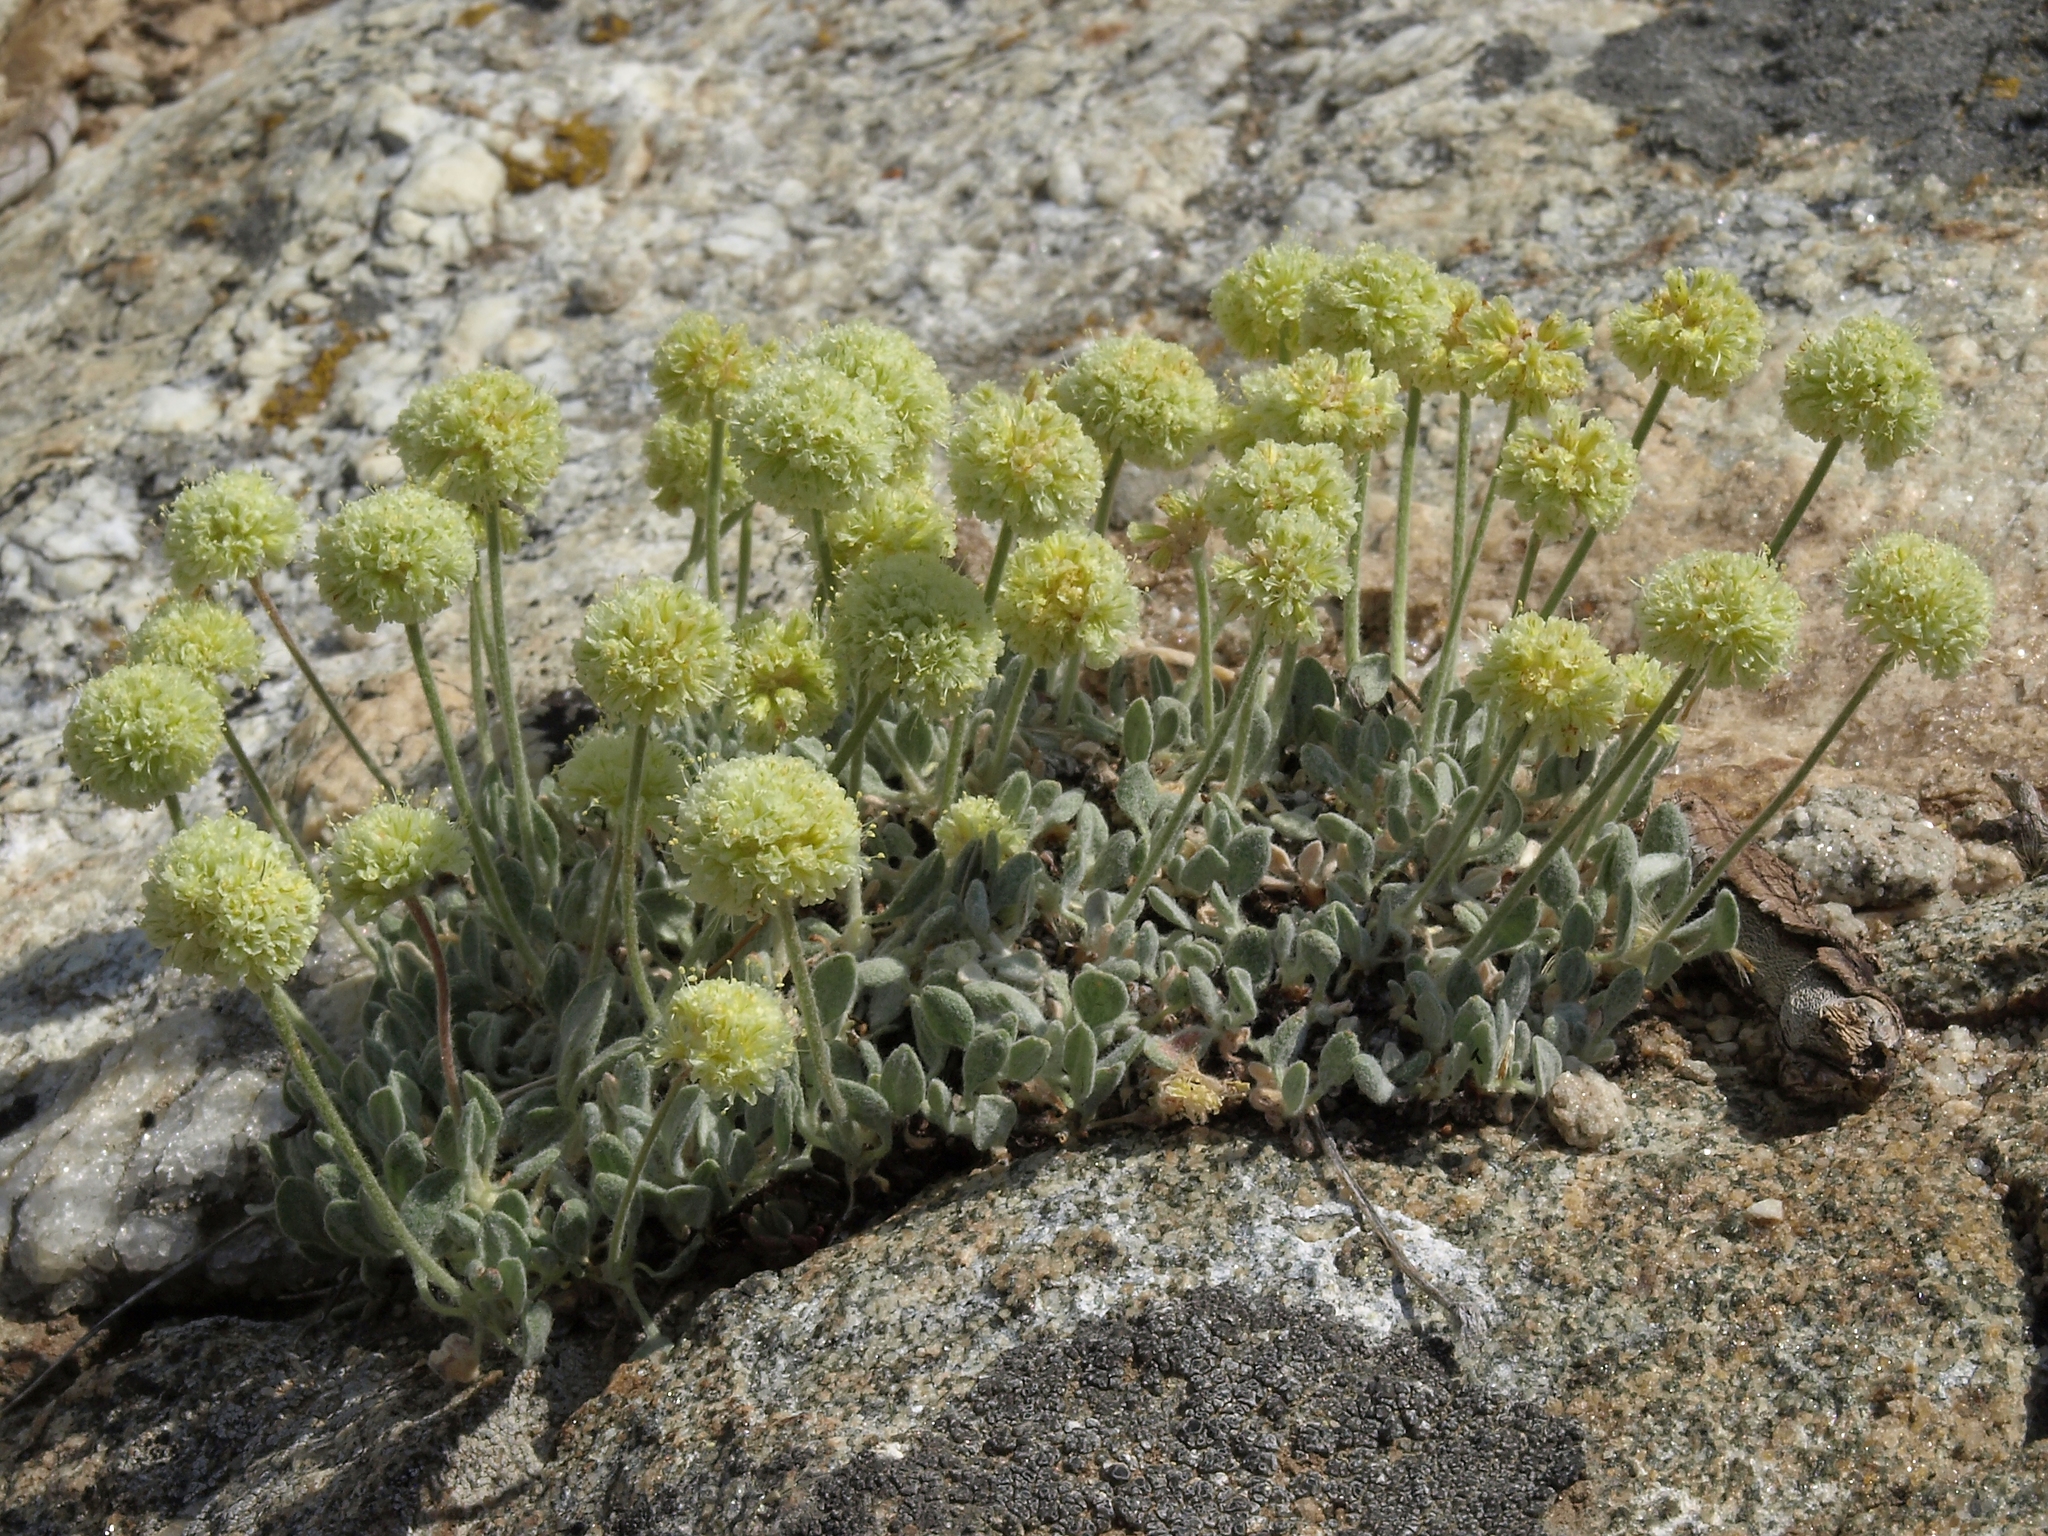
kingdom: Plantae
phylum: Tracheophyta
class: Magnoliopsida
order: Caryophyllales
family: Polygonaceae
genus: Eriogonum
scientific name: Eriogonum kingii
